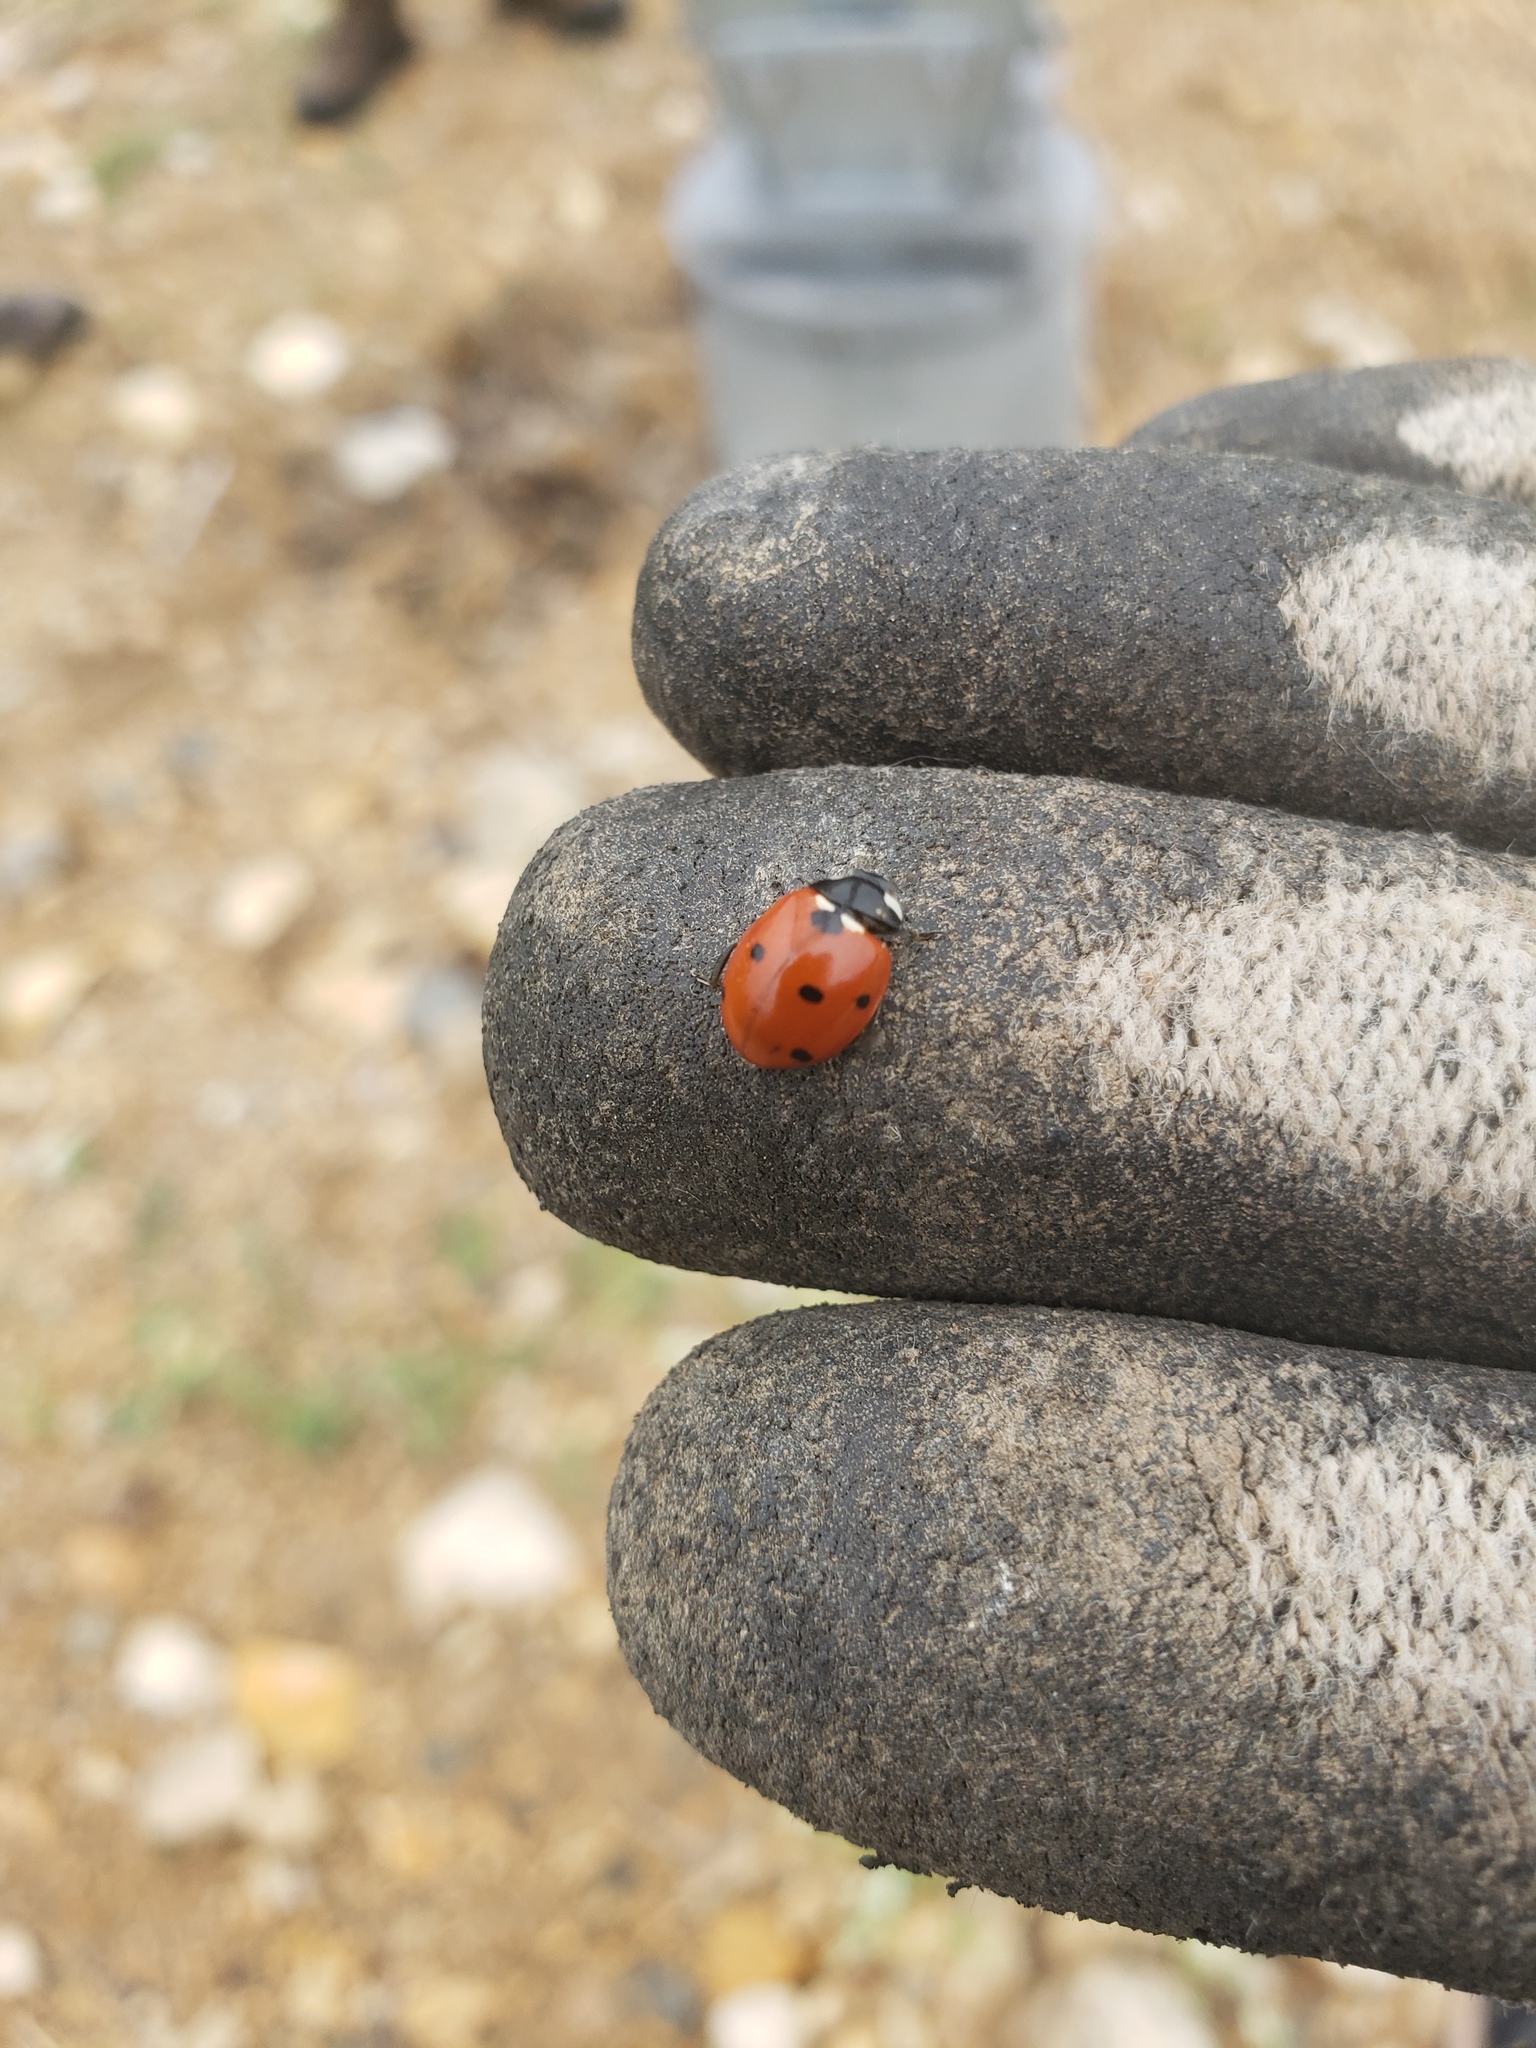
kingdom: Animalia
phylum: Arthropoda
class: Insecta
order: Coleoptera
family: Coccinellidae
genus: Coccinella
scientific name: Coccinella septempunctata
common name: Sevenspotted lady beetle
